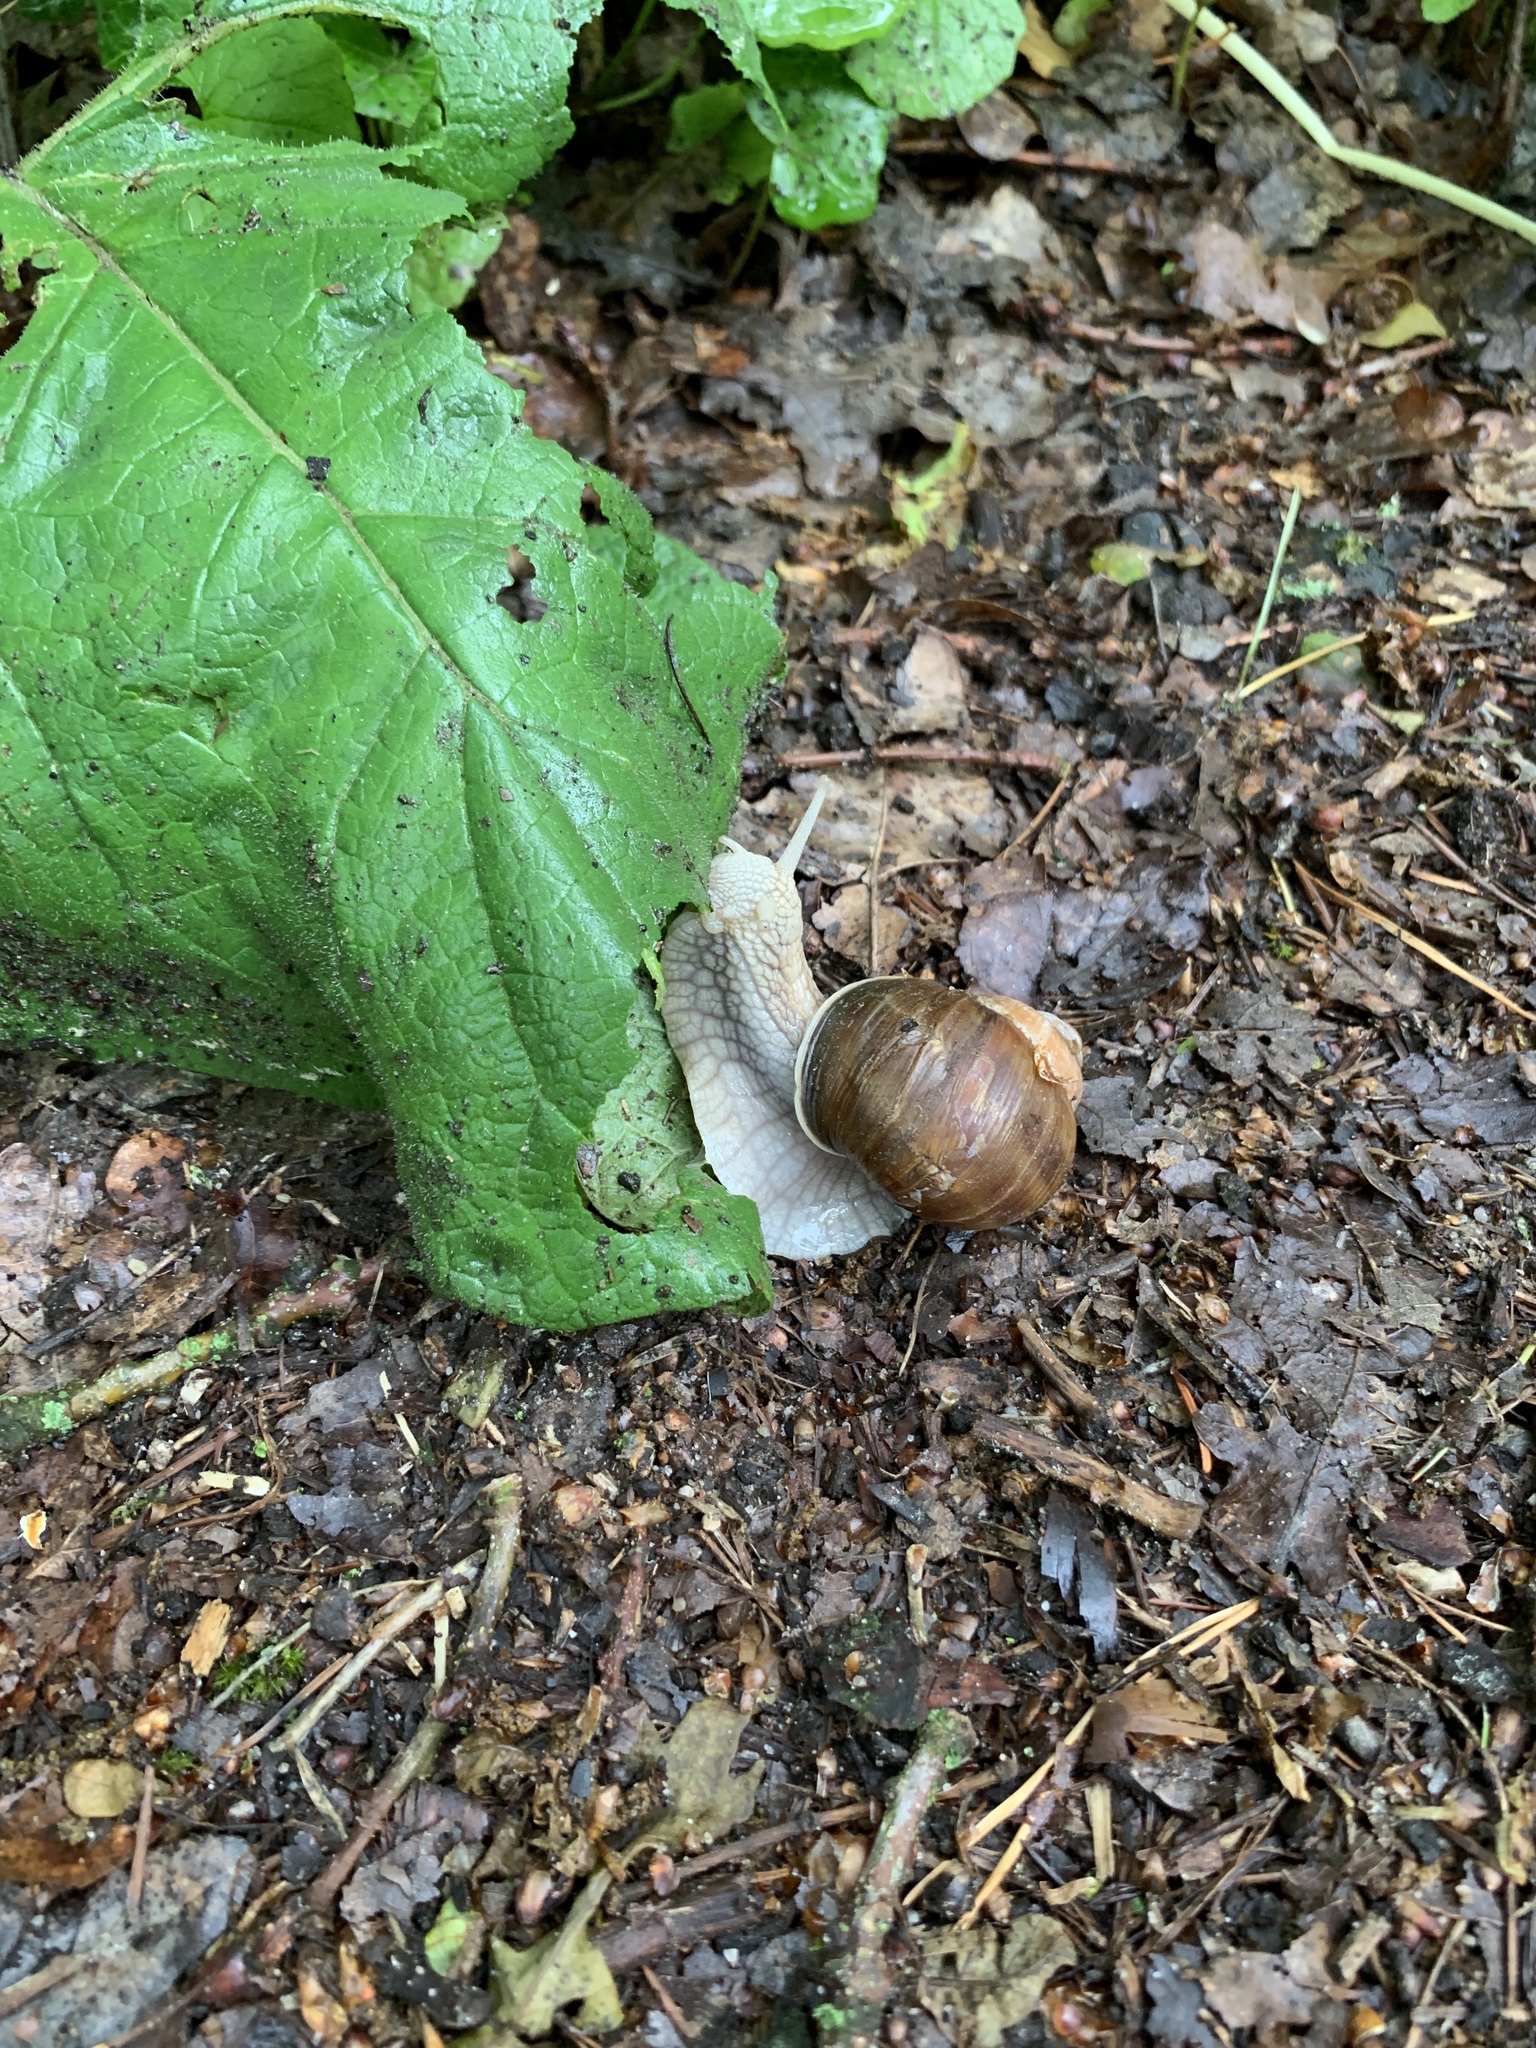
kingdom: Animalia
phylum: Mollusca
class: Gastropoda
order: Stylommatophora
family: Helicidae
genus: Helix
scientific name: Helix pomatia
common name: Roman snail
